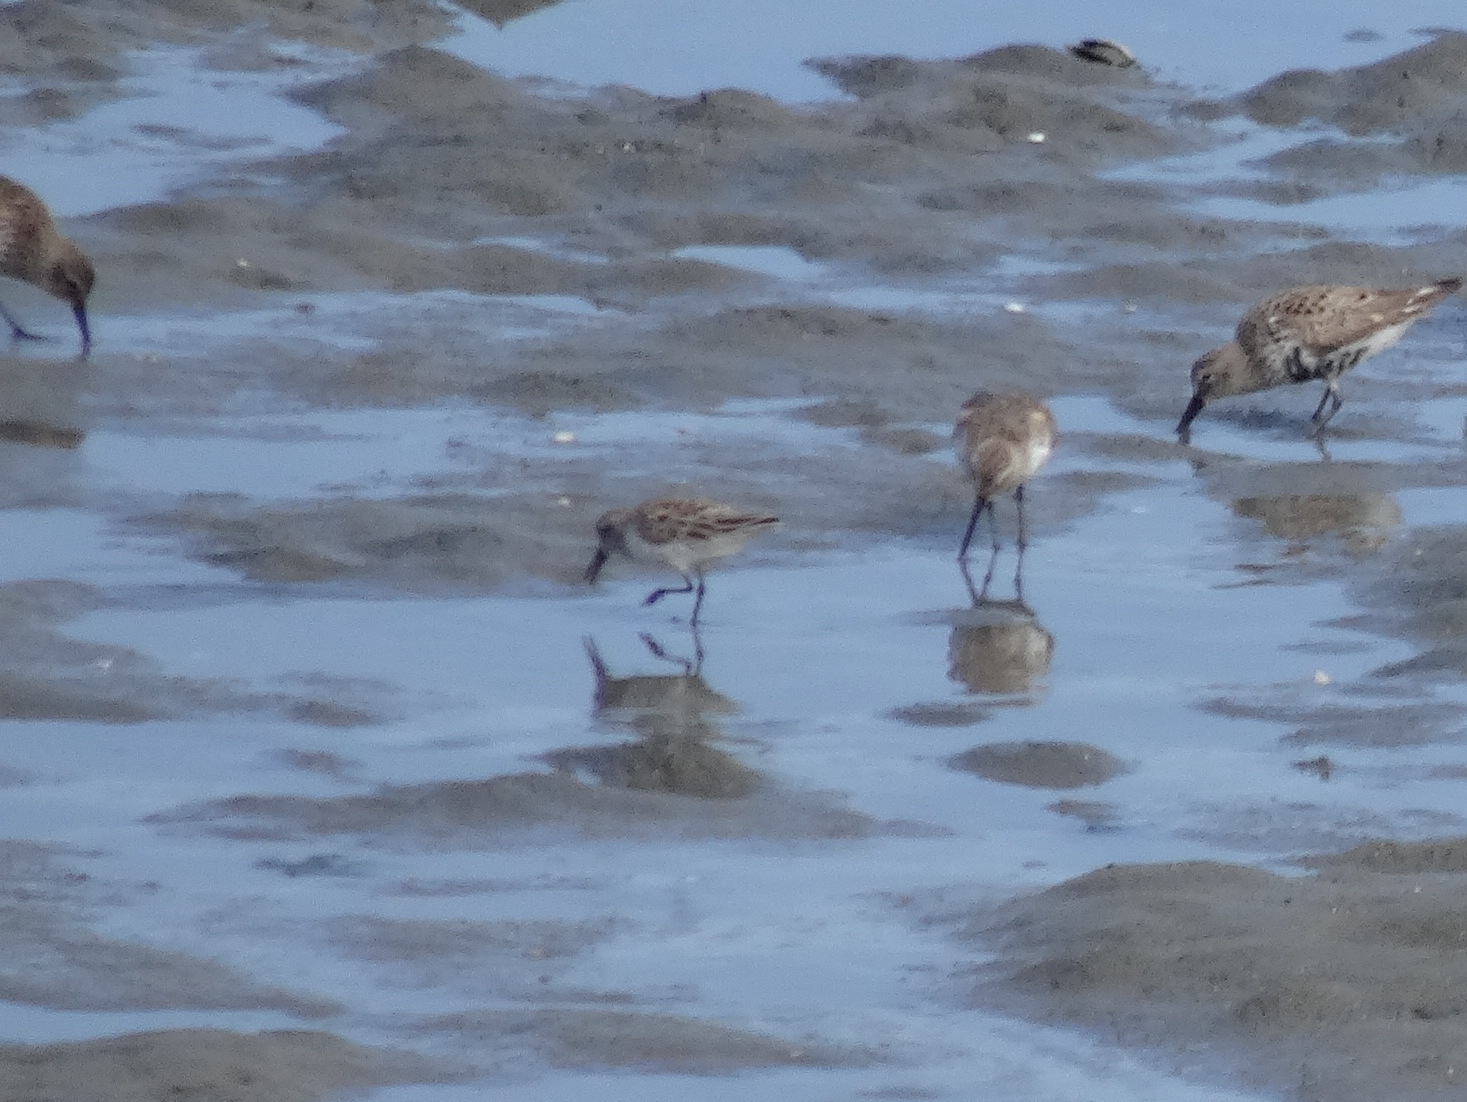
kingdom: Animalia
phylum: Chordata
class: Aves
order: Charadriiformes
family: Scolopacidae
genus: Calidris
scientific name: Calidris mauri
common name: Western sandpiper
